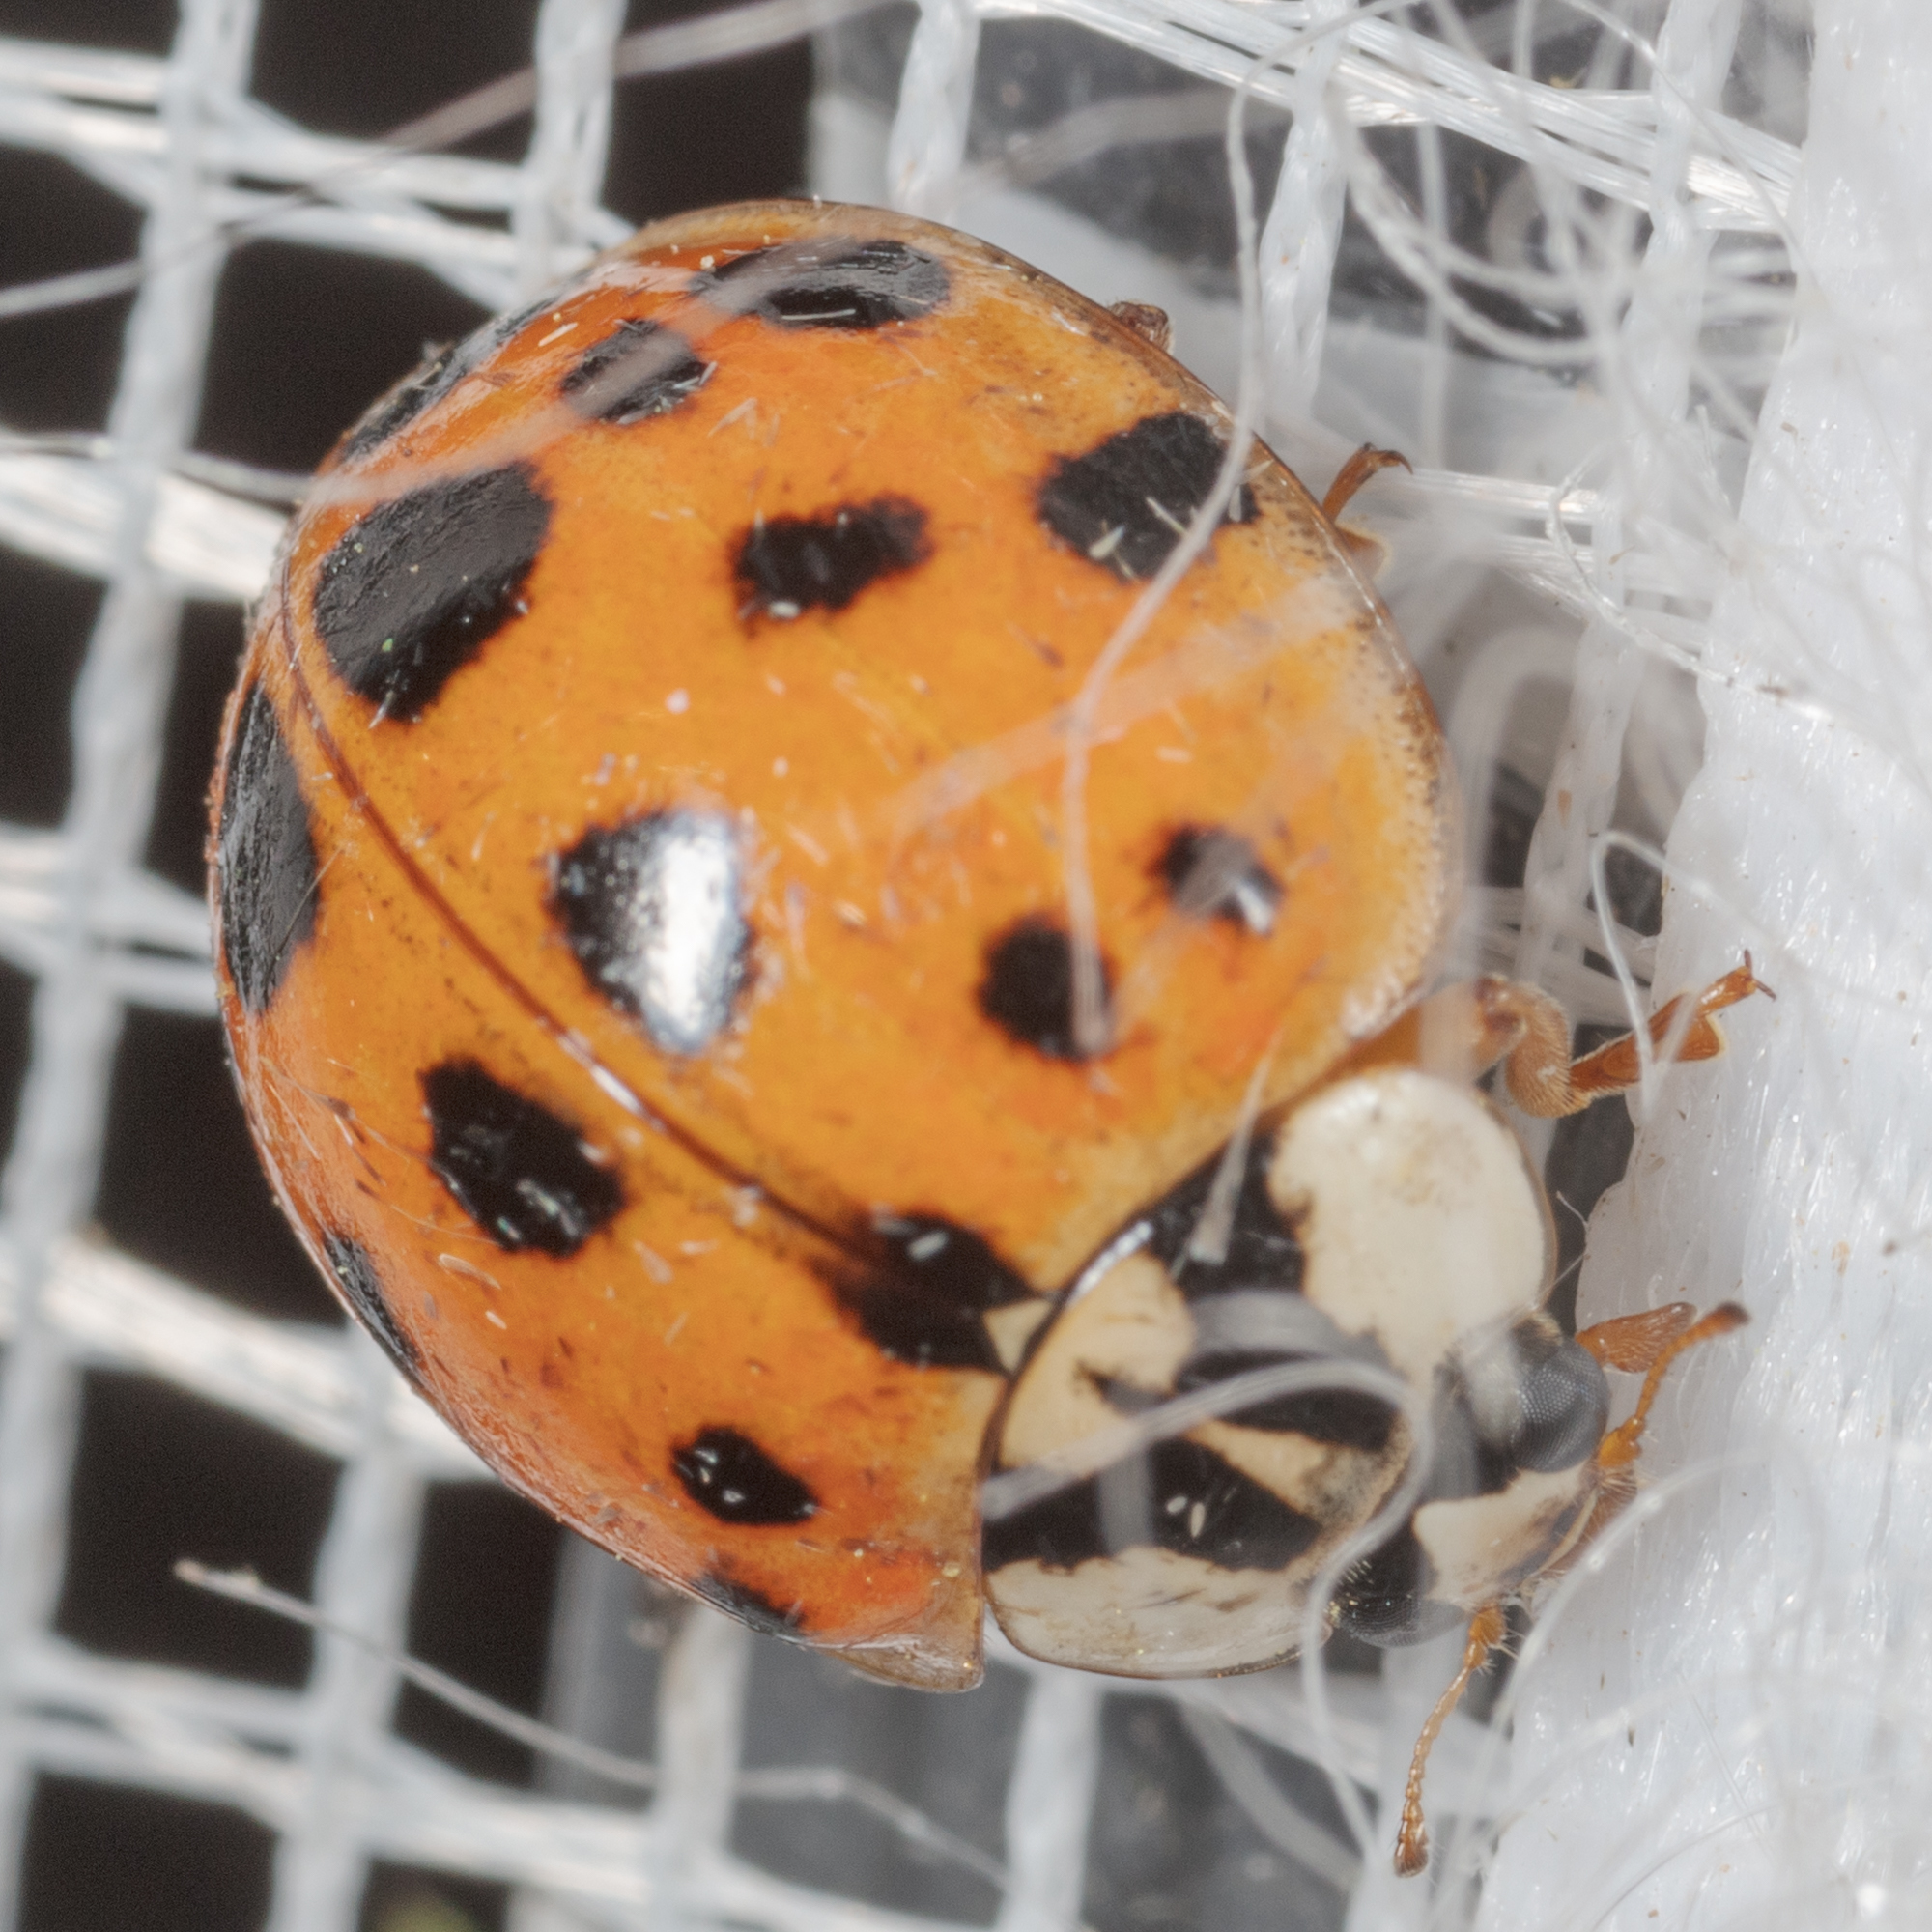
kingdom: Animalia
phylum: Arthropoda
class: Insecta
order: Coleoptera
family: Coccinellidae
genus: Harmonia
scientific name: Harmonia axyridis
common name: Harlequin ladybird
